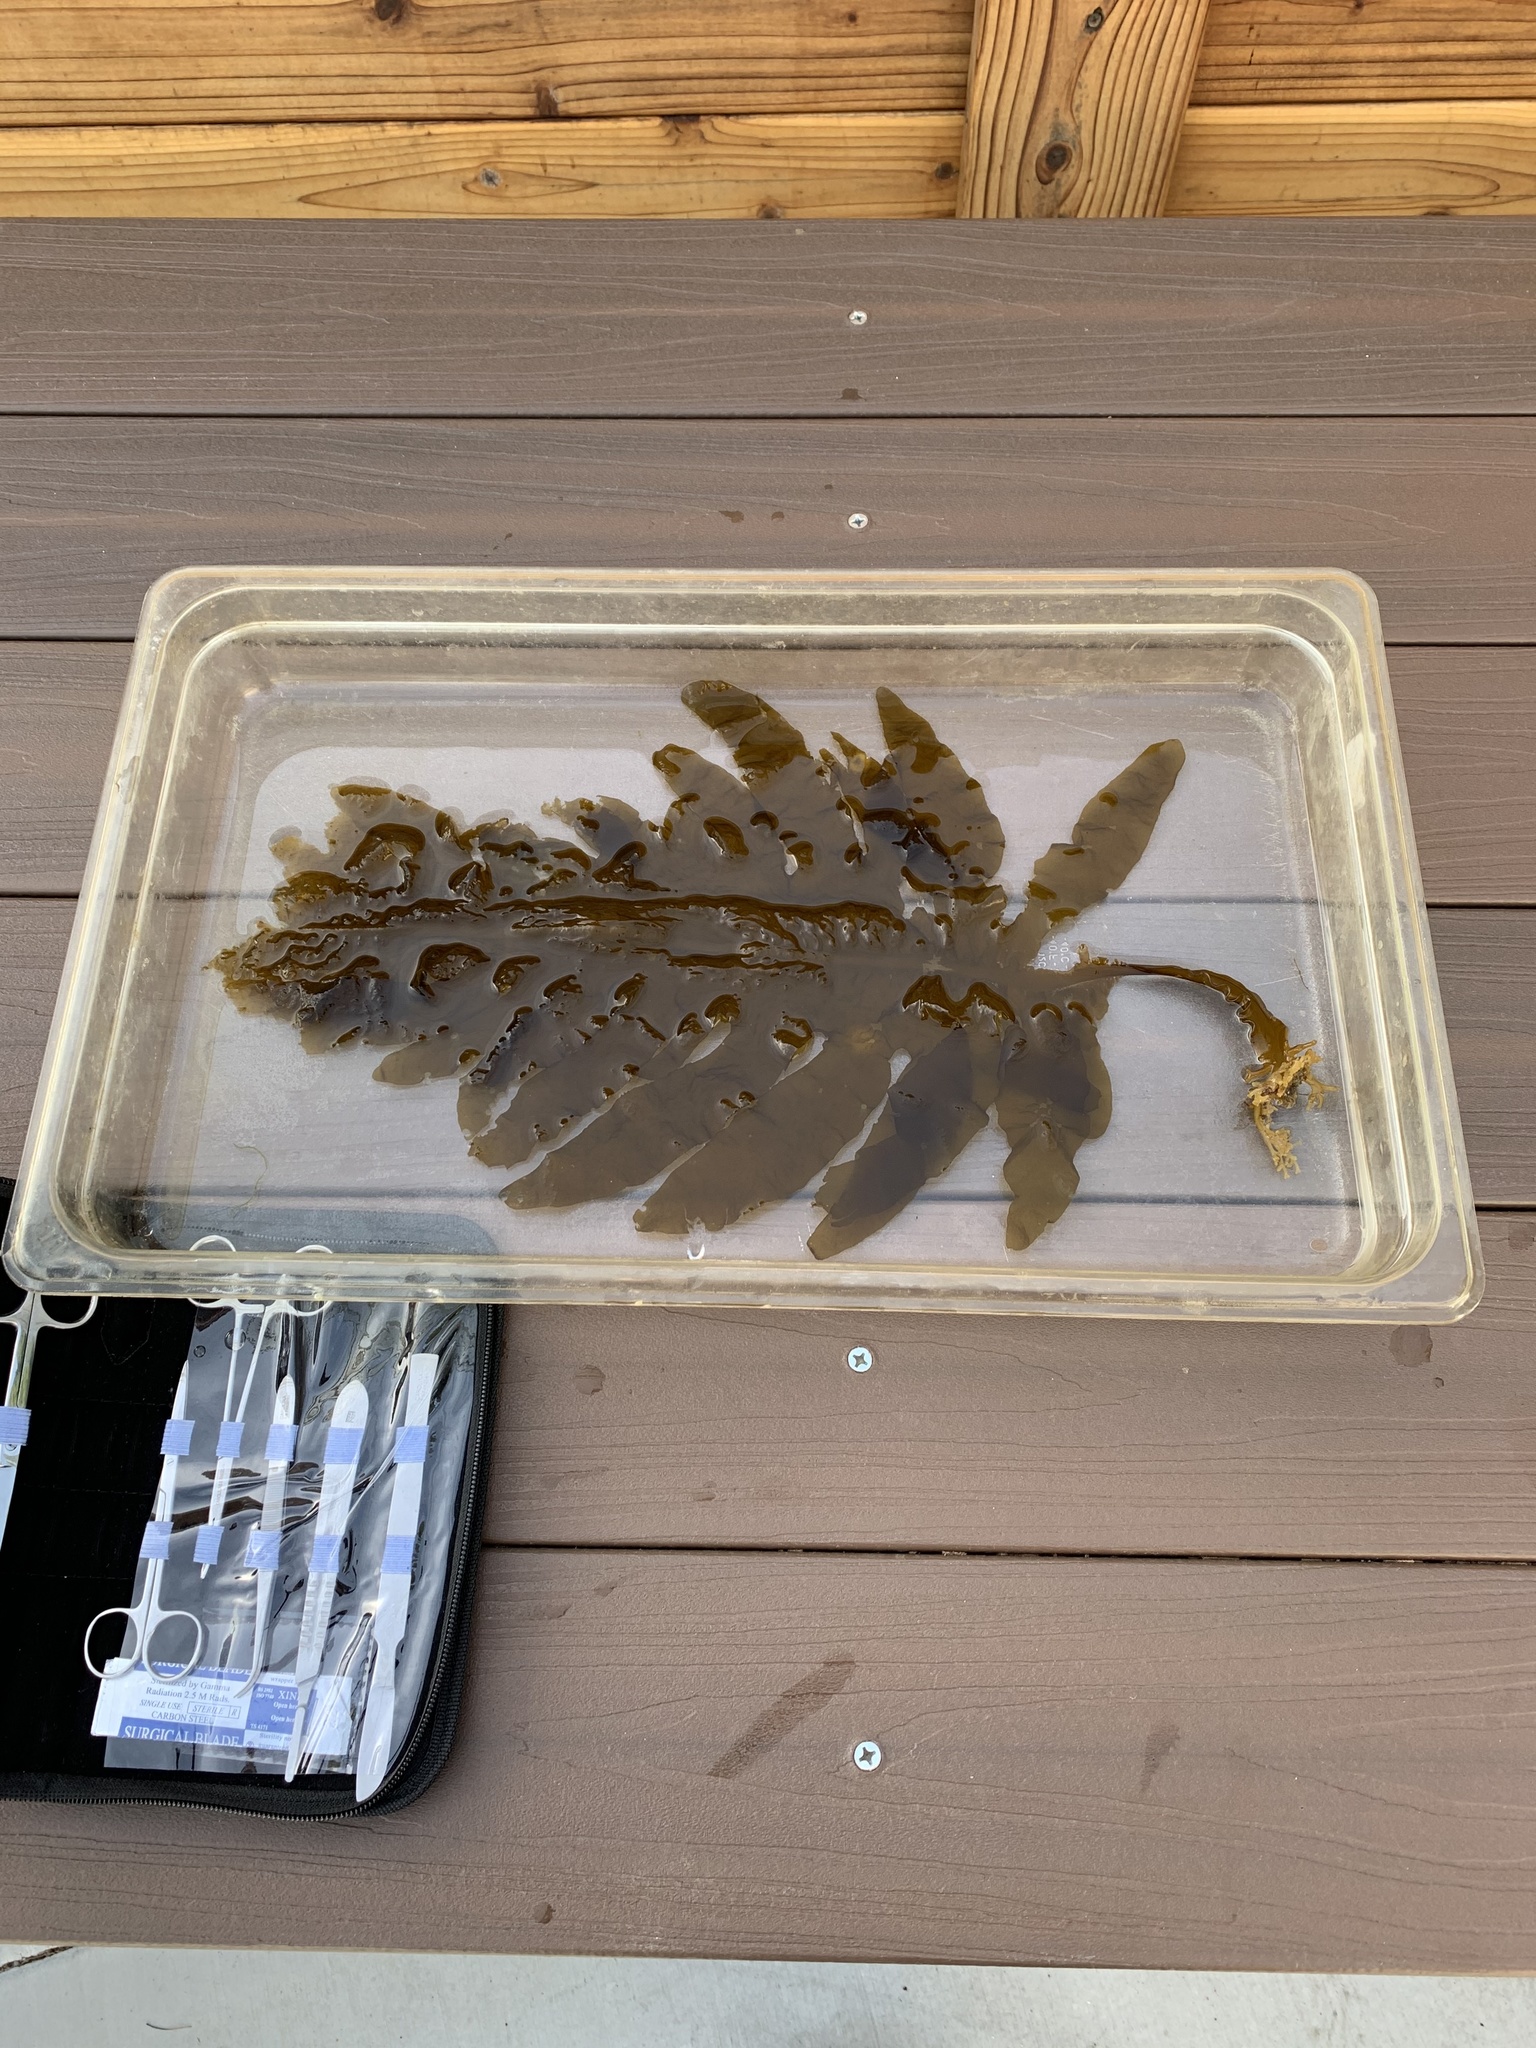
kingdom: Chromista
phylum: Ochrophyta
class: Phaeophyceae
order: Laminariales
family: Alariaceae
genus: Undaria
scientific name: Undaria pinnatifida
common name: Asian kelp
